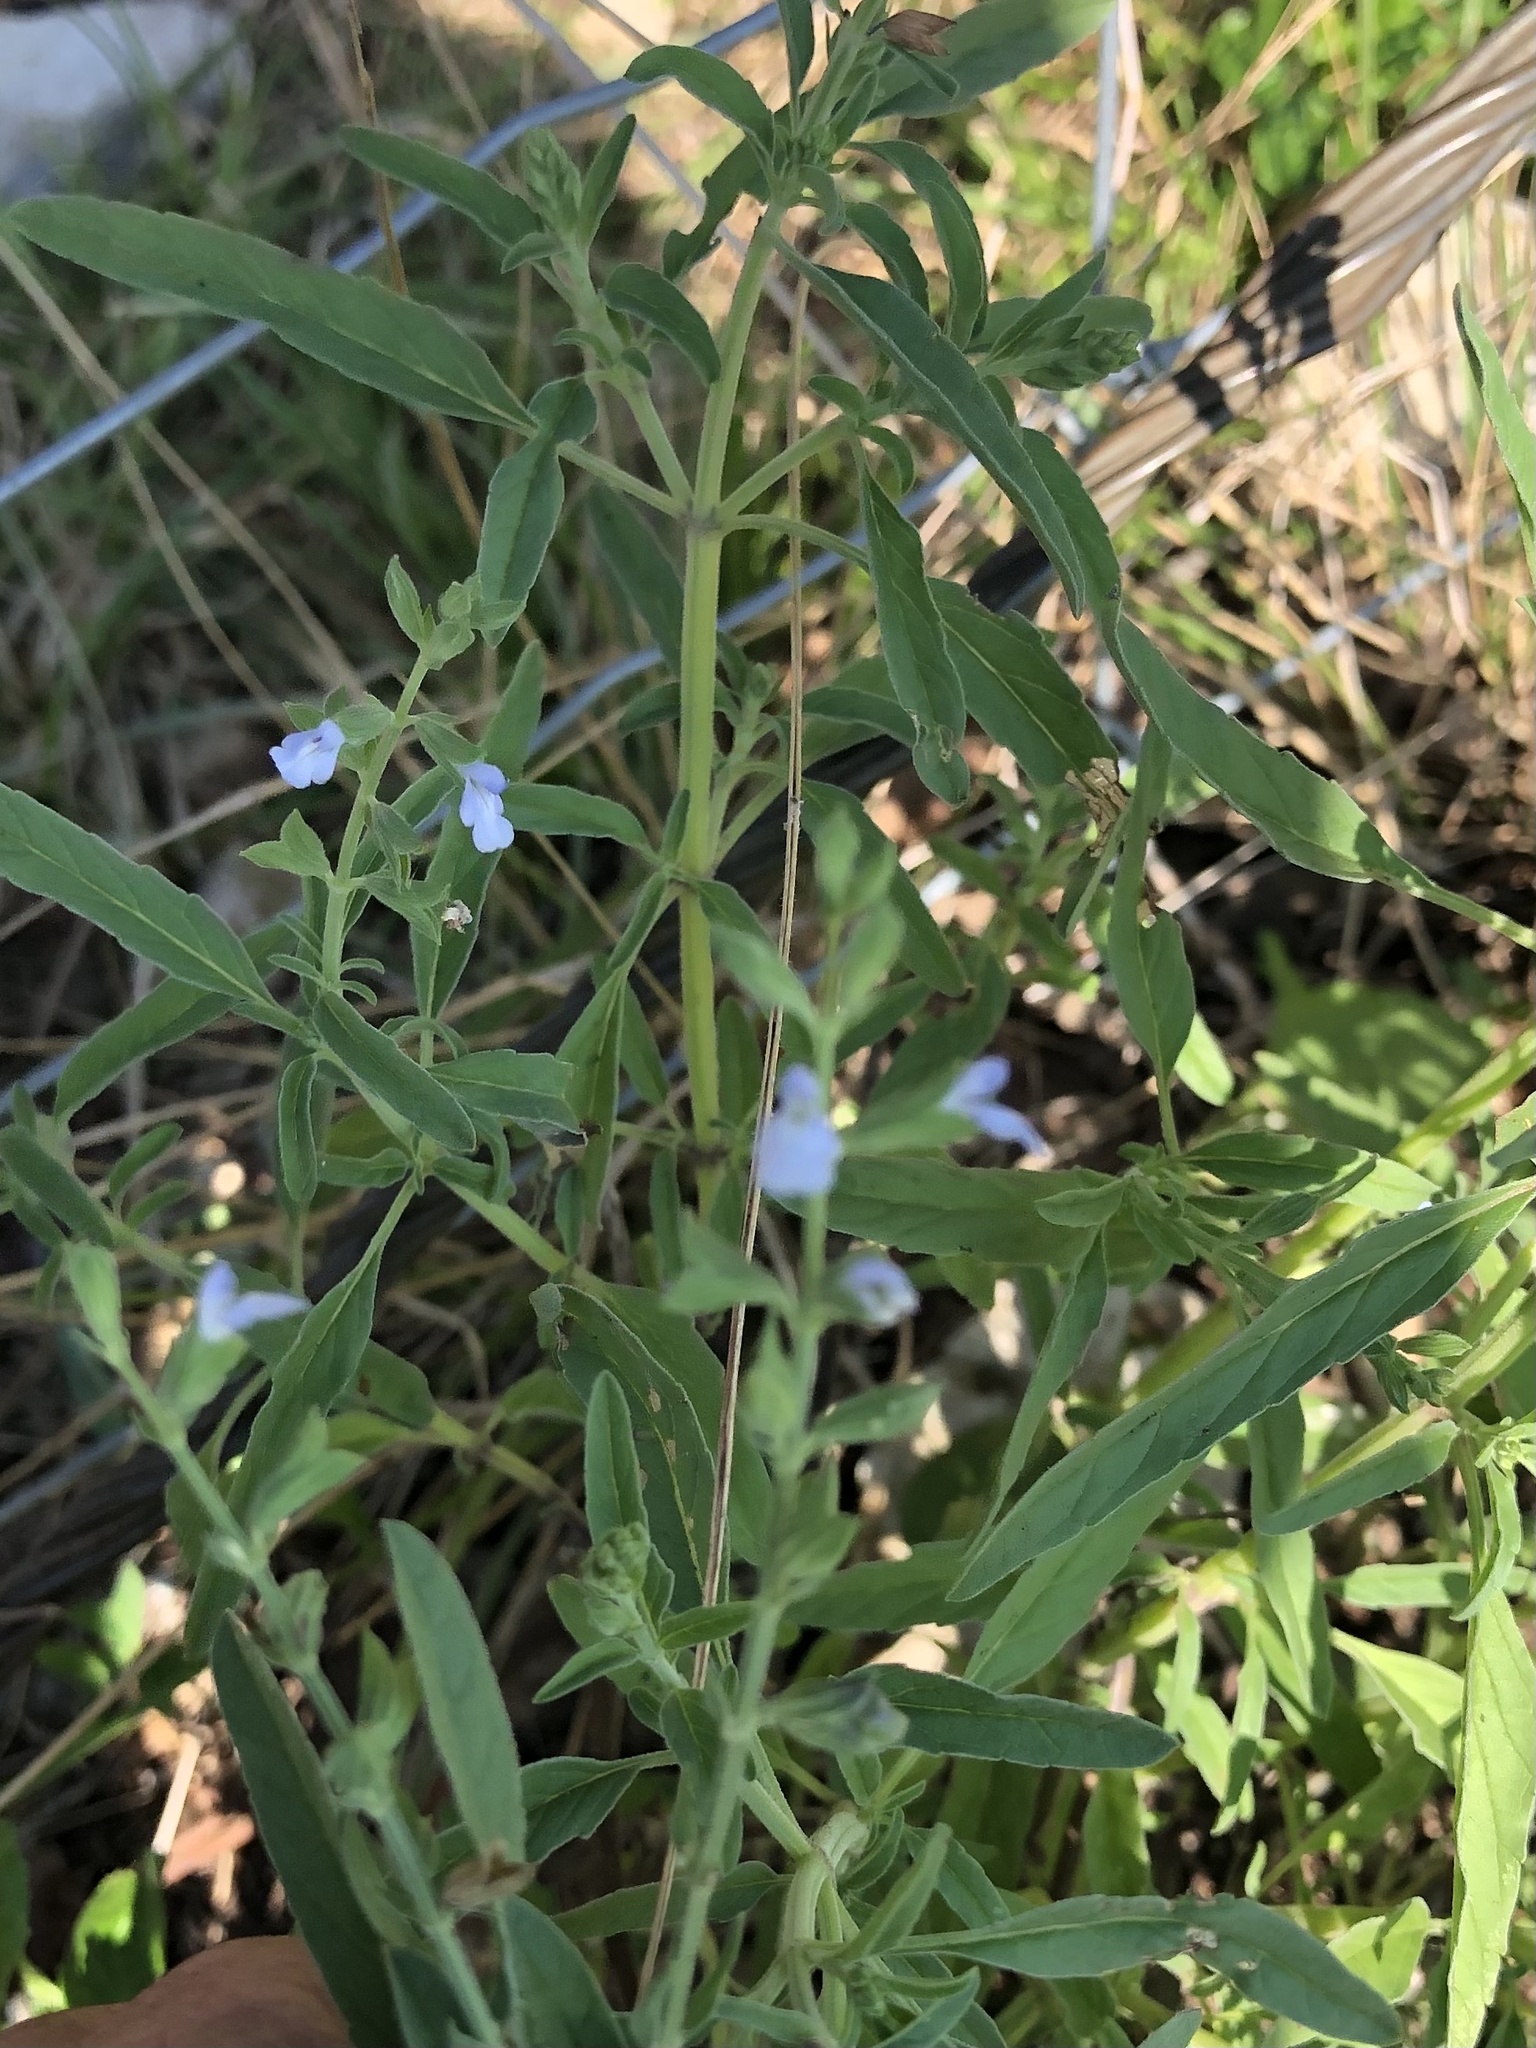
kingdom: Plantae
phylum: Tracheophyta
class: Magnoliopsida
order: Lamiales
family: Lamiaceae
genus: Salvia
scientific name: Salvia reflexa
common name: Mintweed
